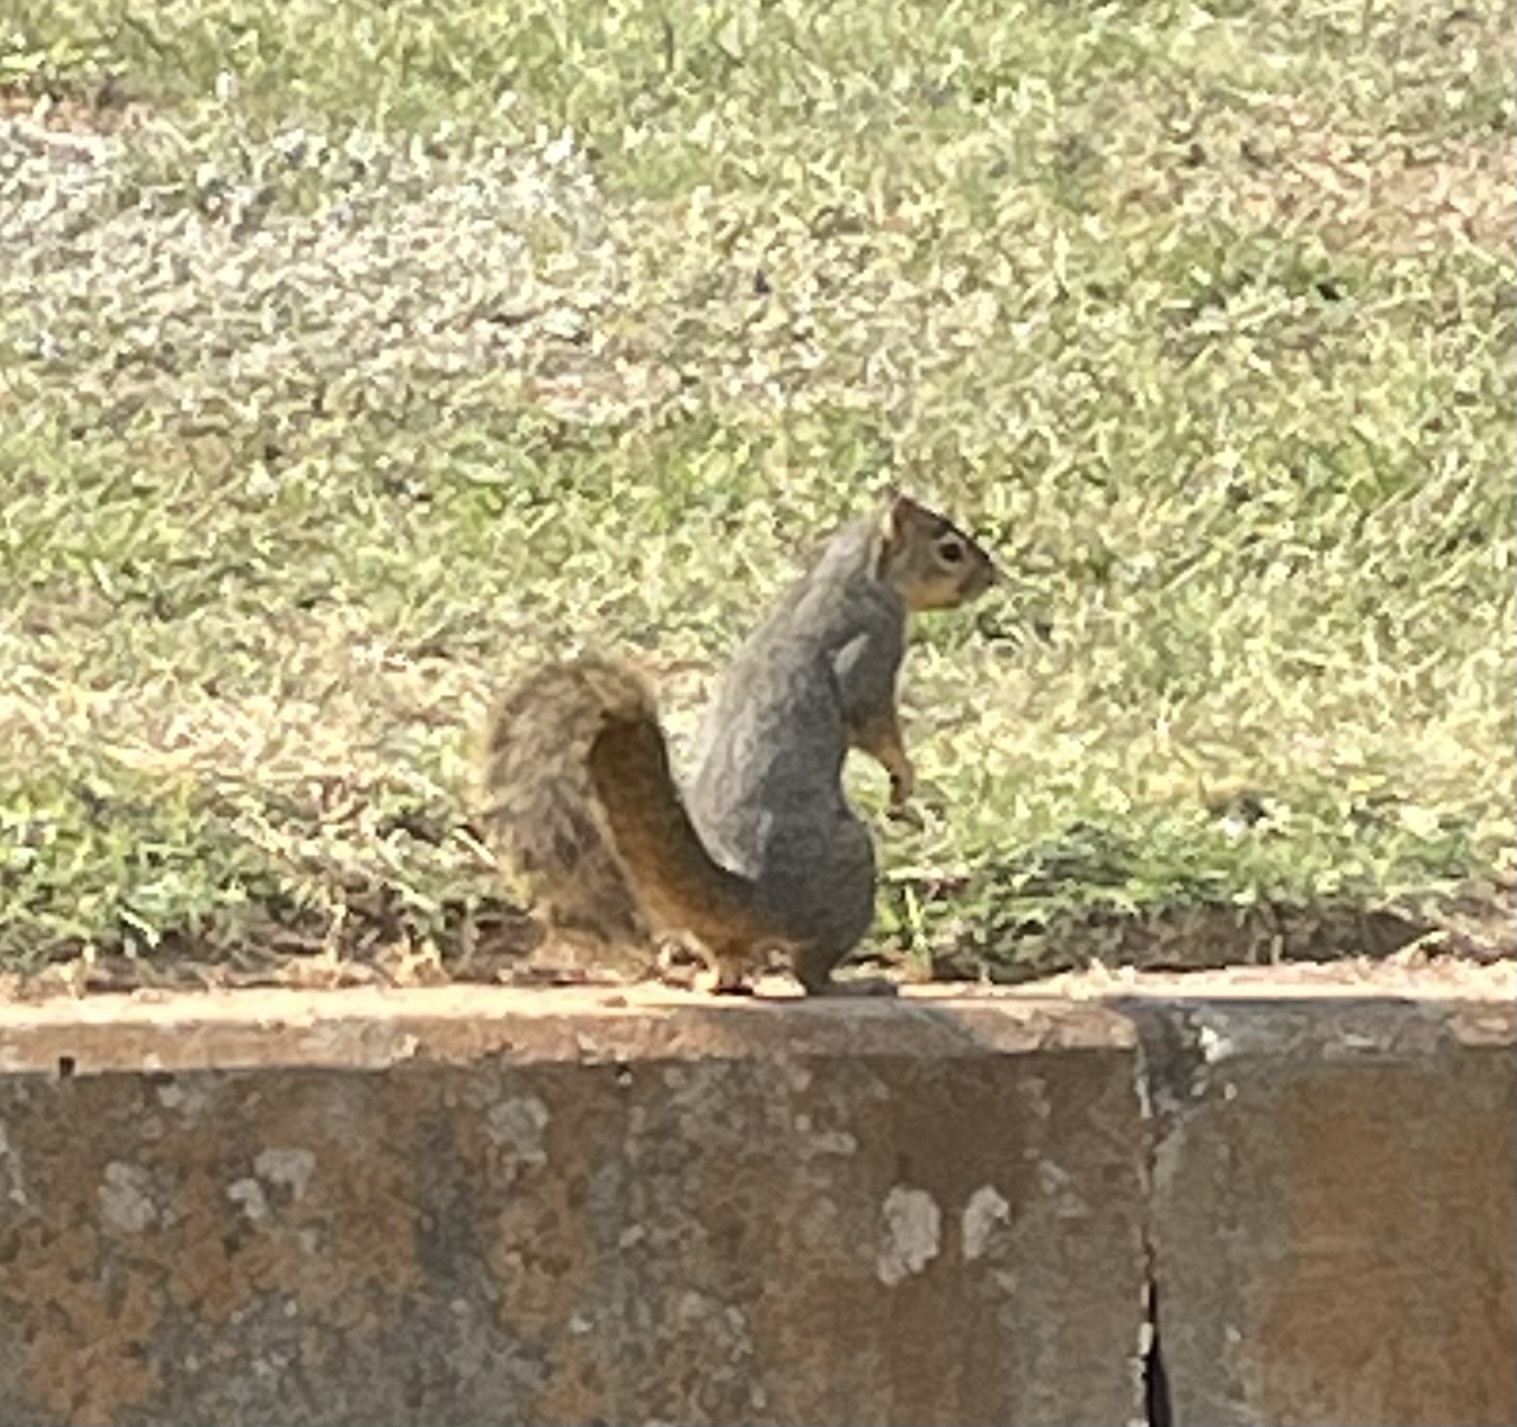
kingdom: Animalia
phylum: Chordata
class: Mammalia
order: Rodentia
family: Sciuridae
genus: Sciurus
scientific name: Sciurus niger
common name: Fox squirrel
